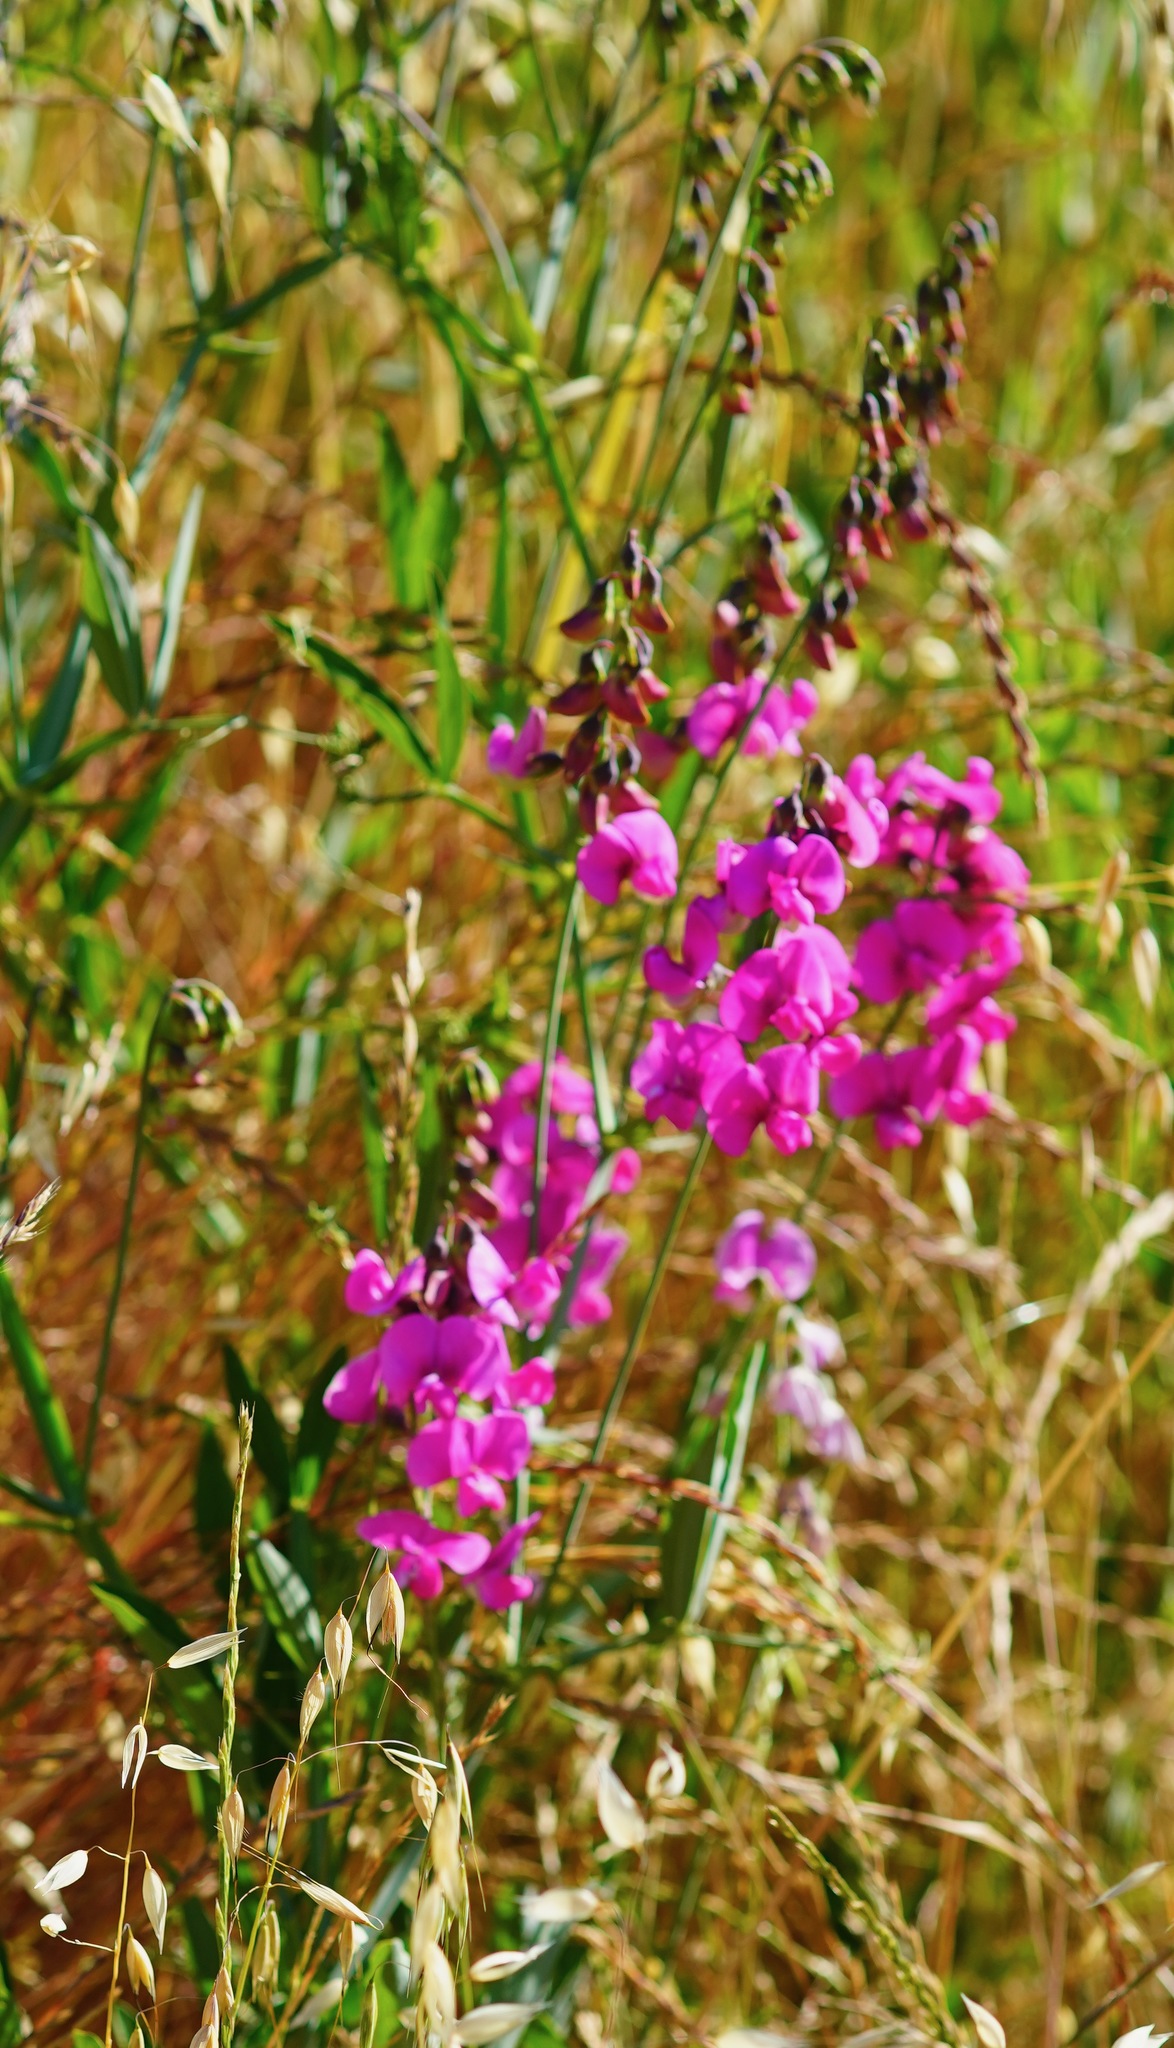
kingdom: Plantae
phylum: Tracheophyta
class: Magnoliopsida
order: Fabales
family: Fabaceae
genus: Lathyrus
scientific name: Lathyrus latifolius
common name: Perennial pea
